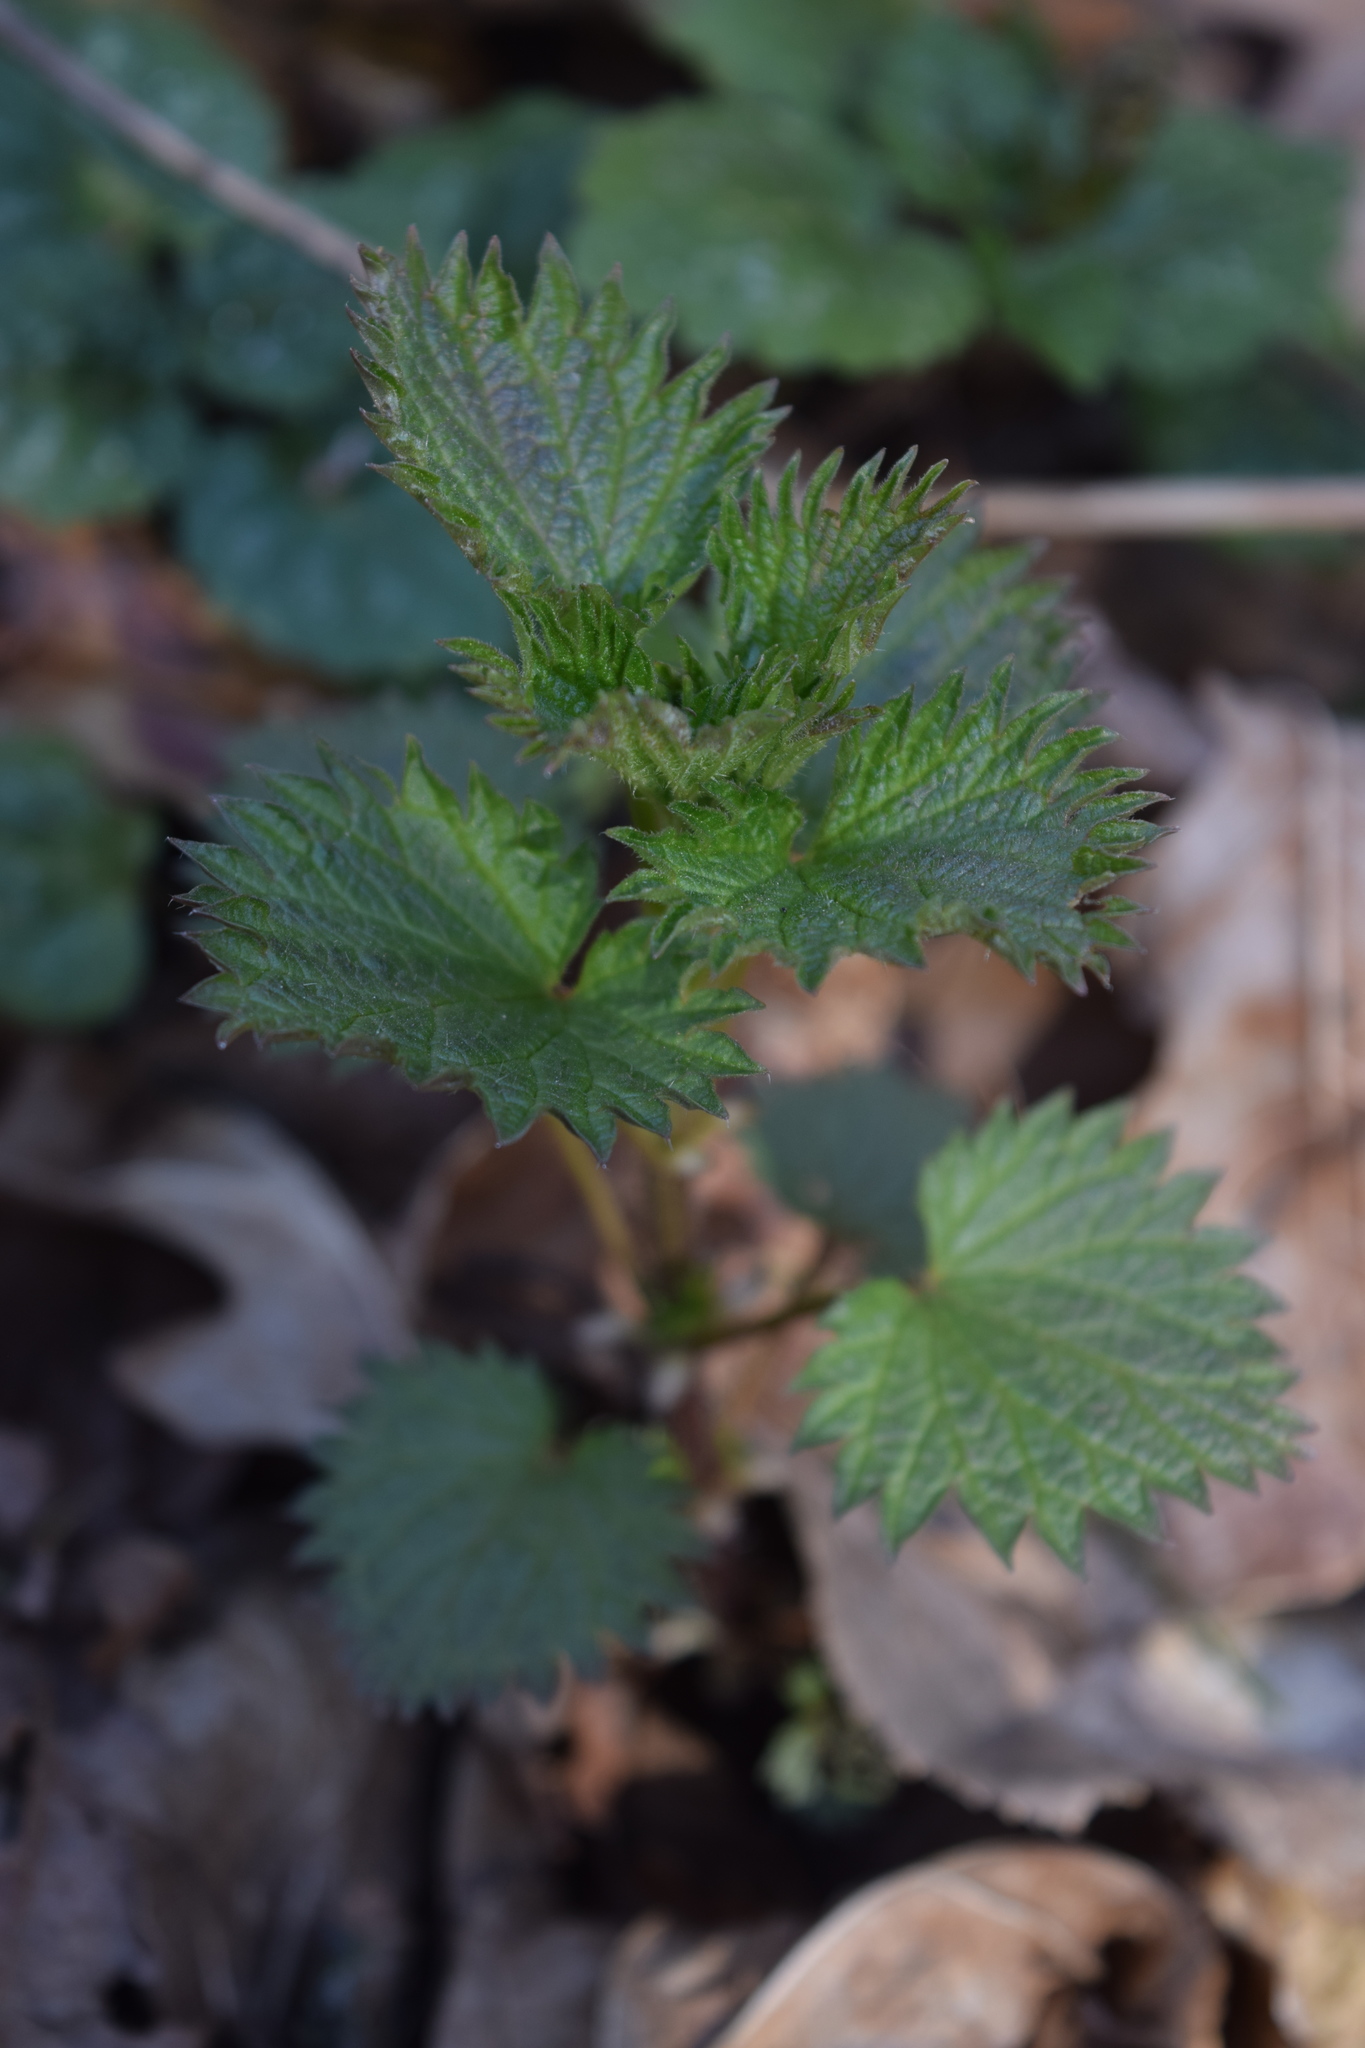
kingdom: Plantae
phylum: Tracheophyta
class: Magnoliopsida
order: Rosales
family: Urticaceae
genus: Urtica
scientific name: Urtica dioica
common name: Common nettle
